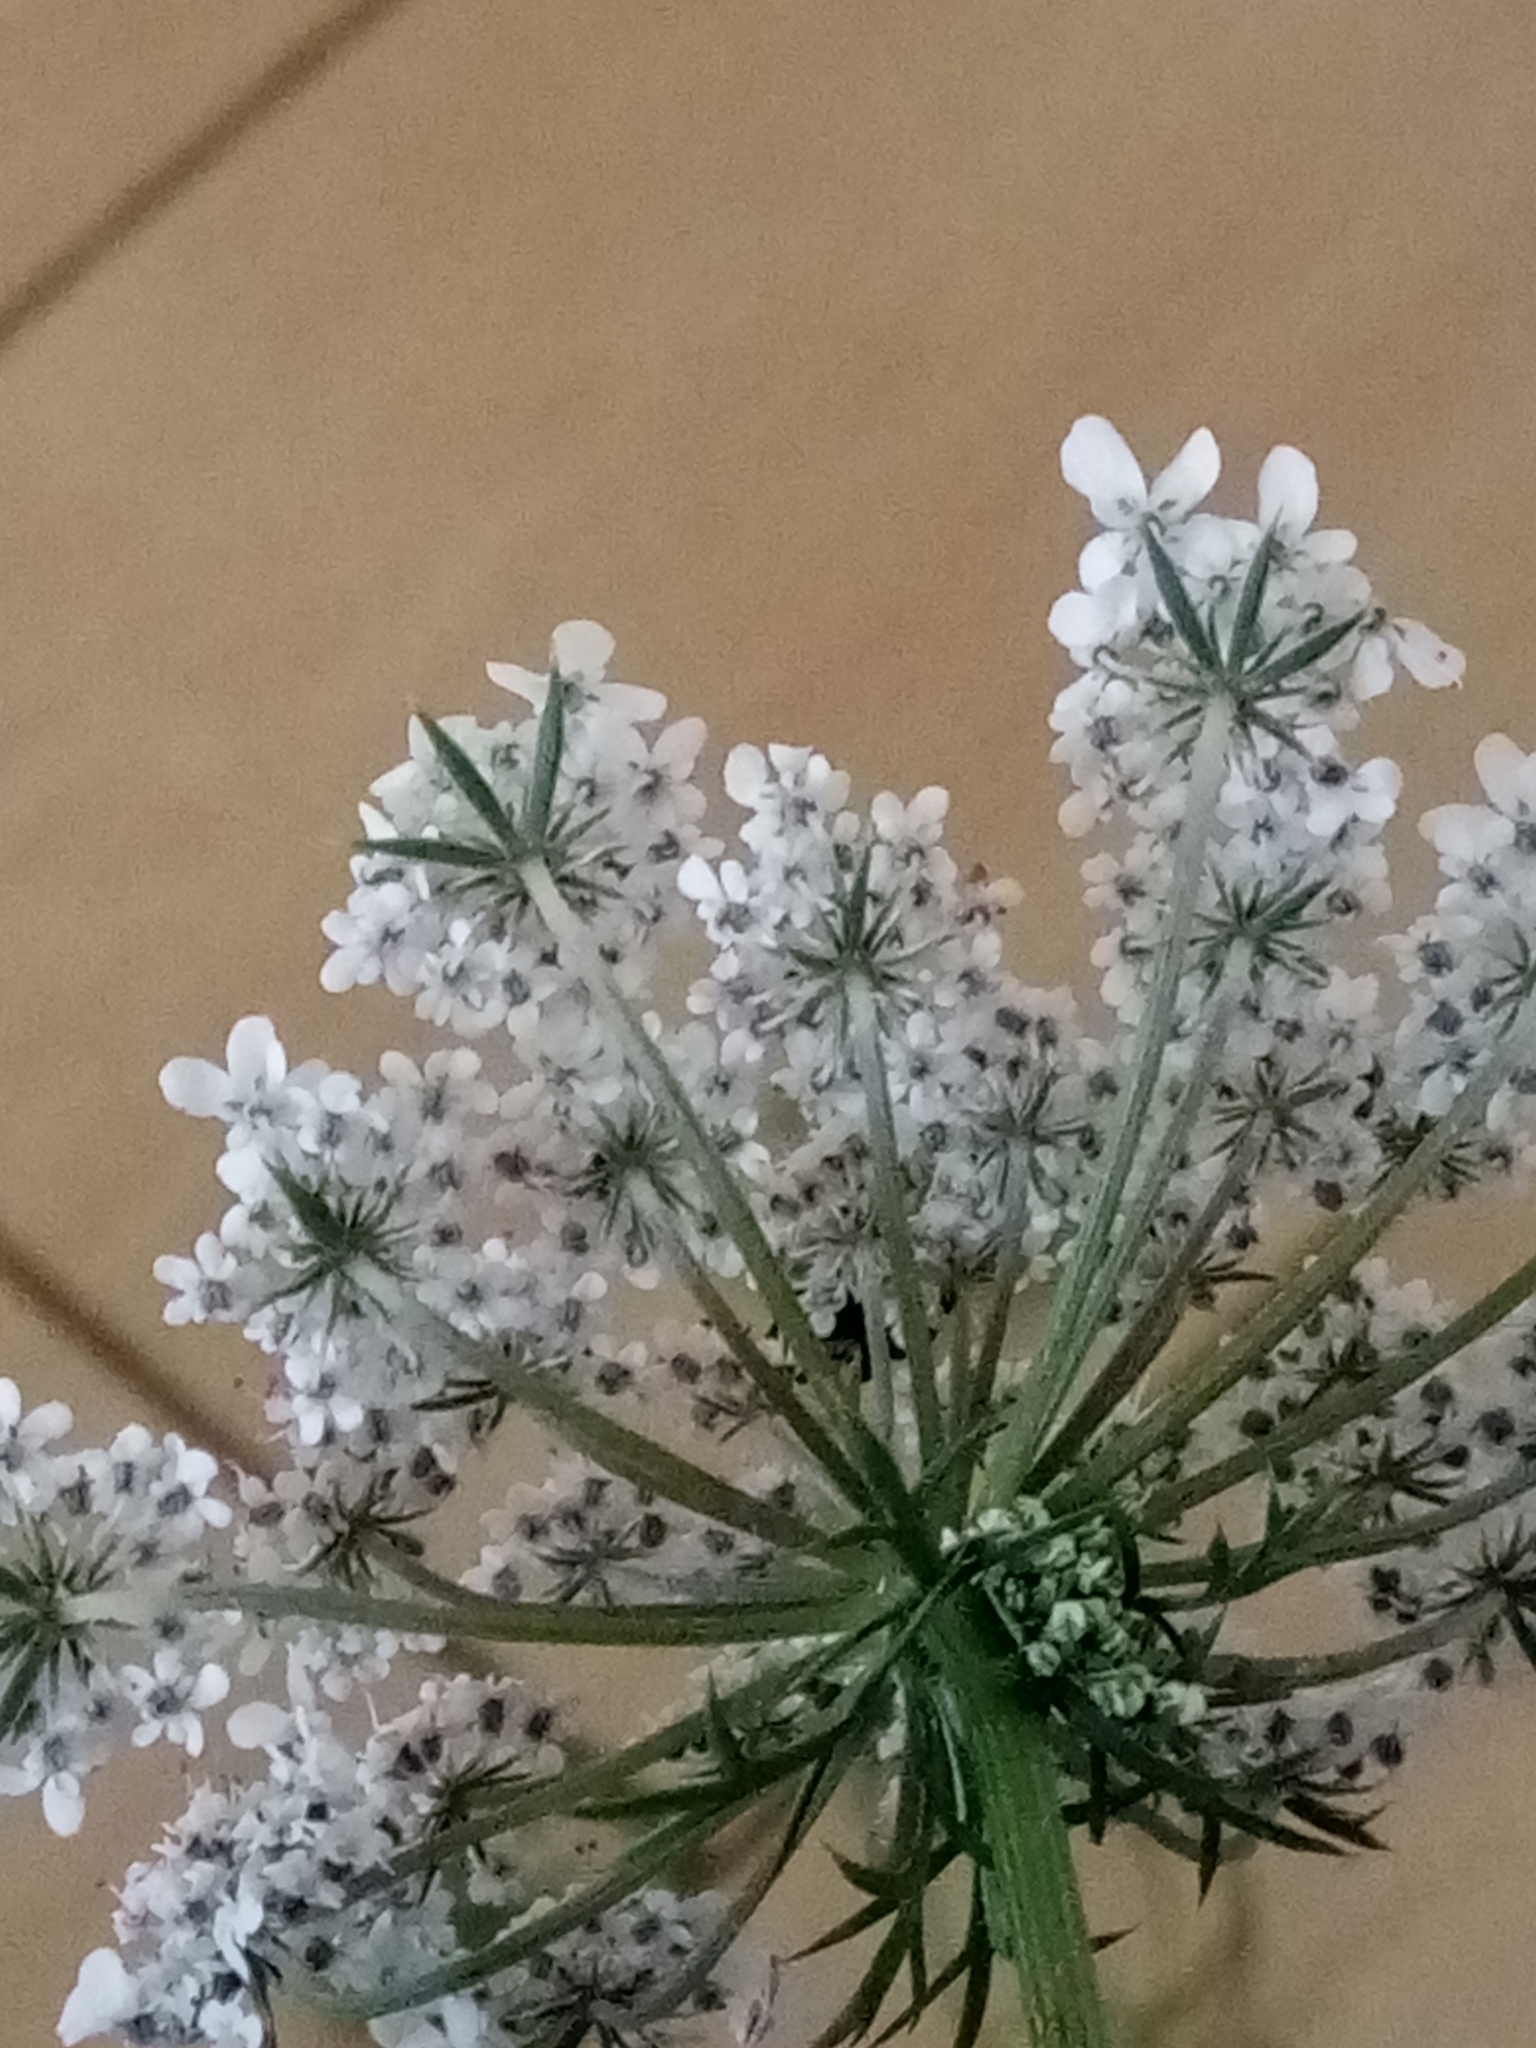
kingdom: Plantae
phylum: Tracheophyta
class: Magnoliopsida
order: Apiales
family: Apiaceae
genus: Daucus
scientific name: Daucus carota
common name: Wild carrot
